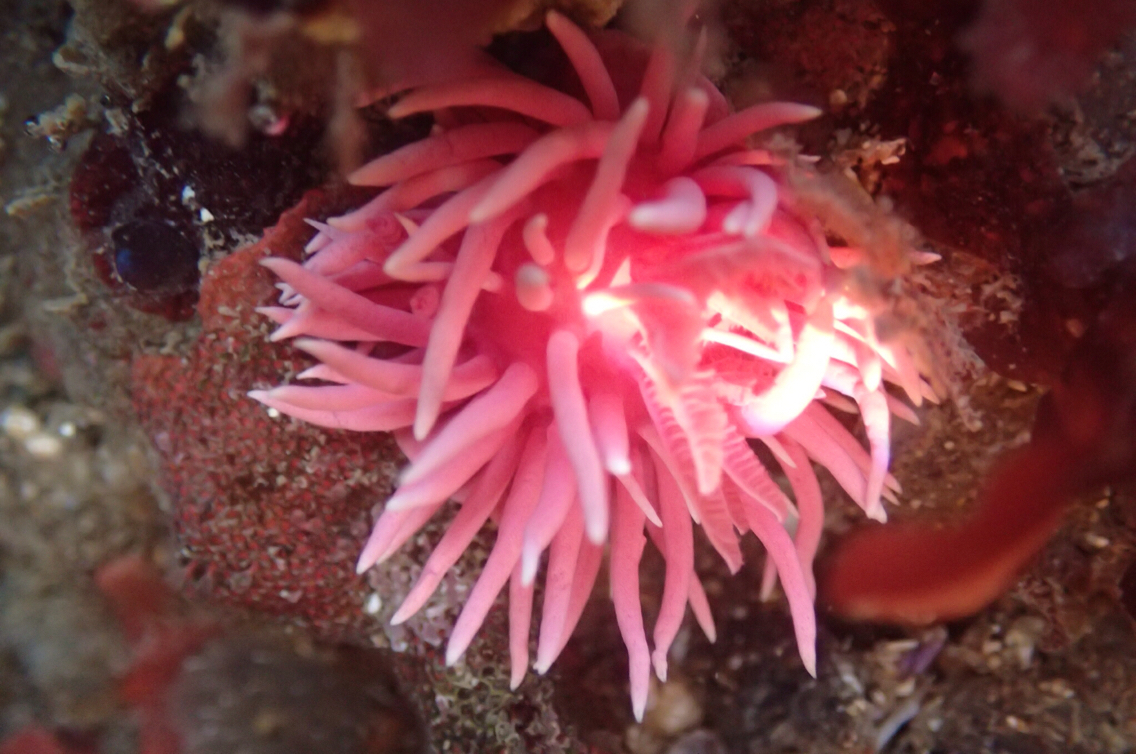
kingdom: Animalia
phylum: Mollusca
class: Gastropoda
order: Nudibranchia
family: Goniodorididae
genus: Okenia
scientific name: Okenia
